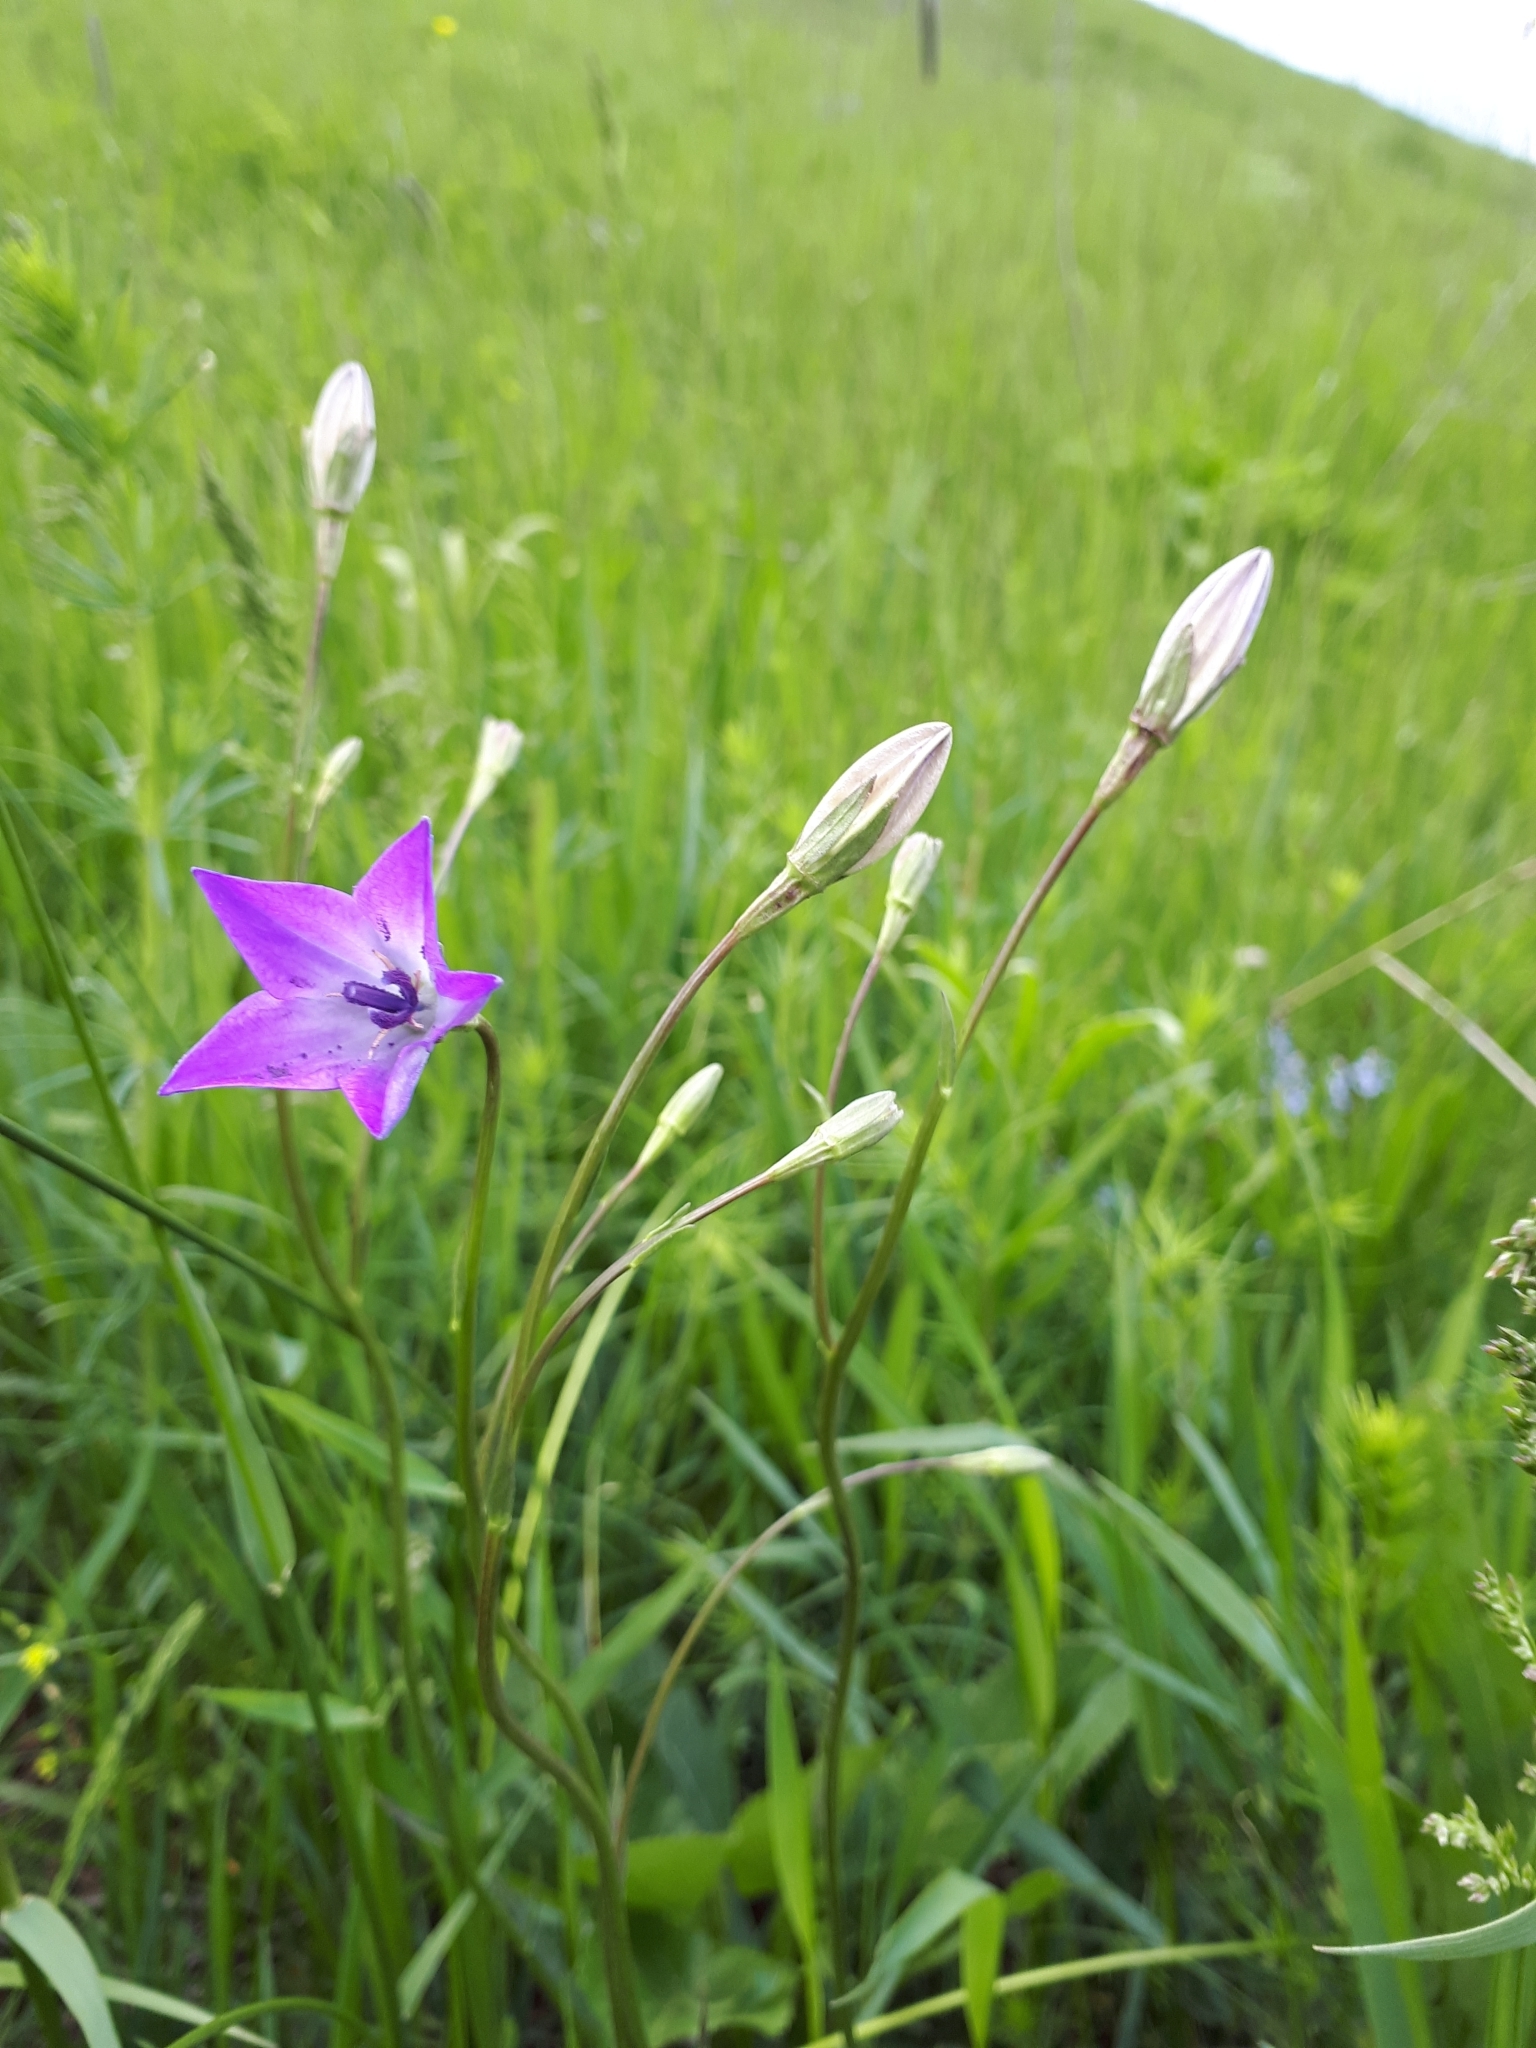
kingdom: Plantae
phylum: Tracheophyta
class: Magnoliopsida
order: Asterales
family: Campanulaceae
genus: Campanula
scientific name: Campanula stevenii
